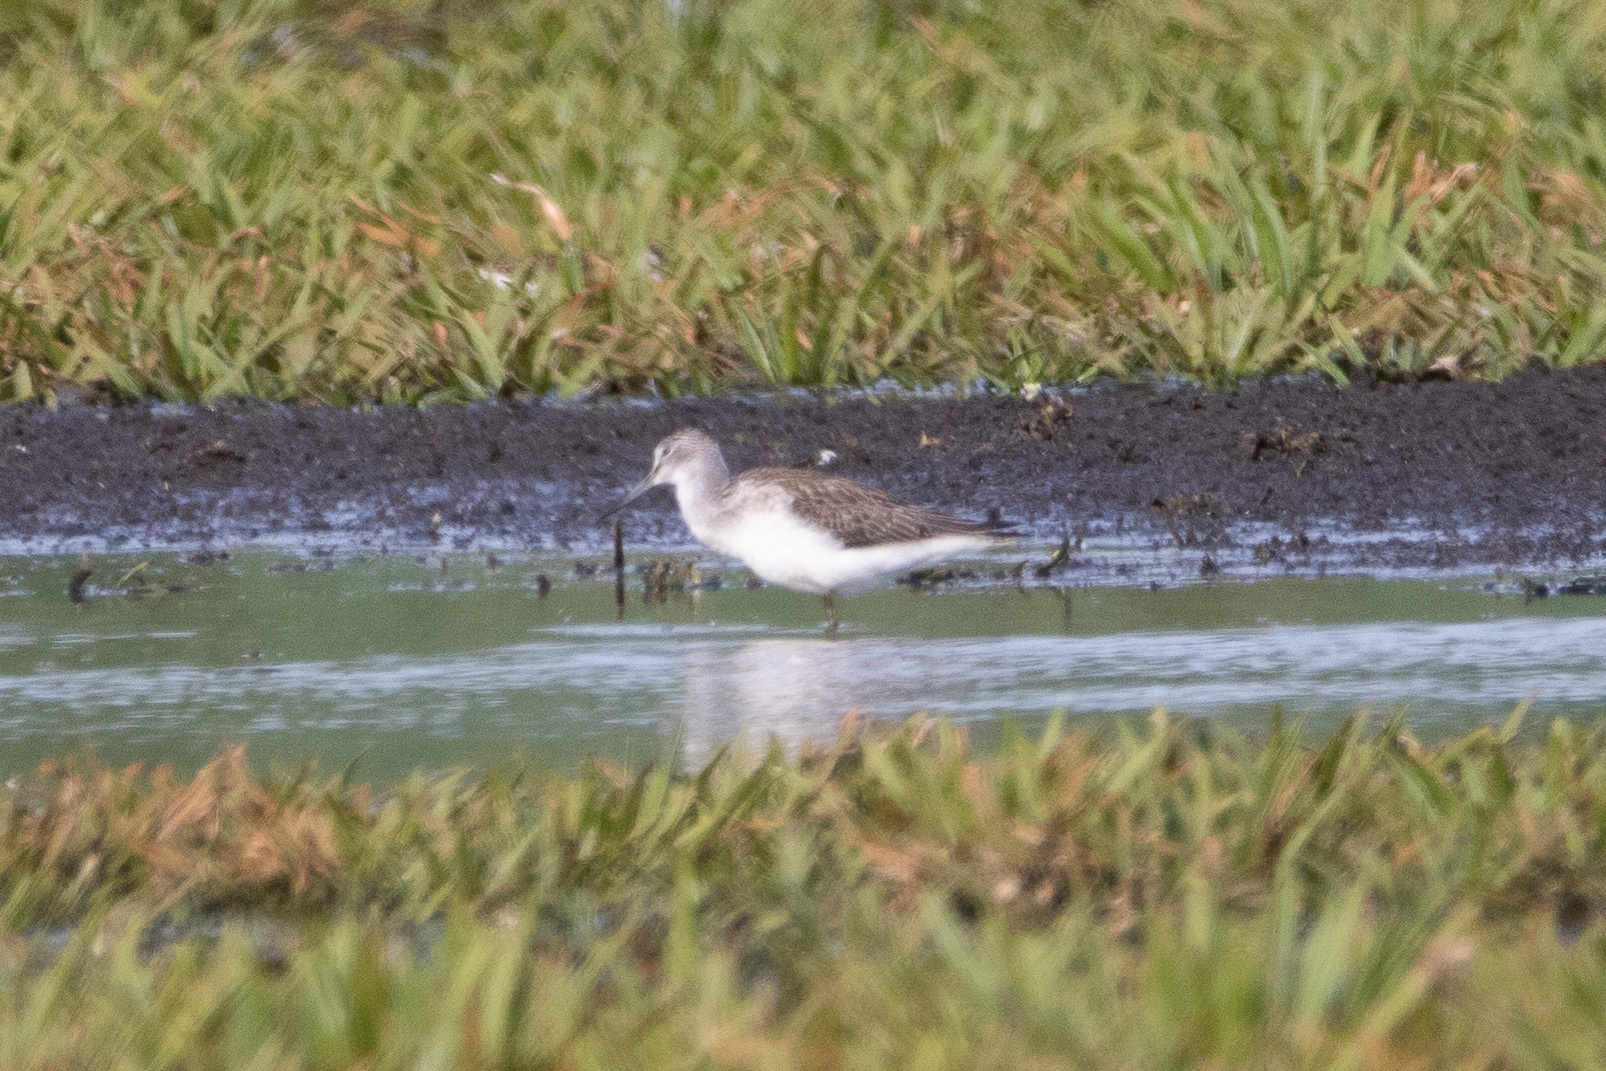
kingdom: Animalia
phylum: Chordata
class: Aves
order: Charadriiformes
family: Scolopacidae
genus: Tringa
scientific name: Tringa nebularia
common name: Common greenshank
